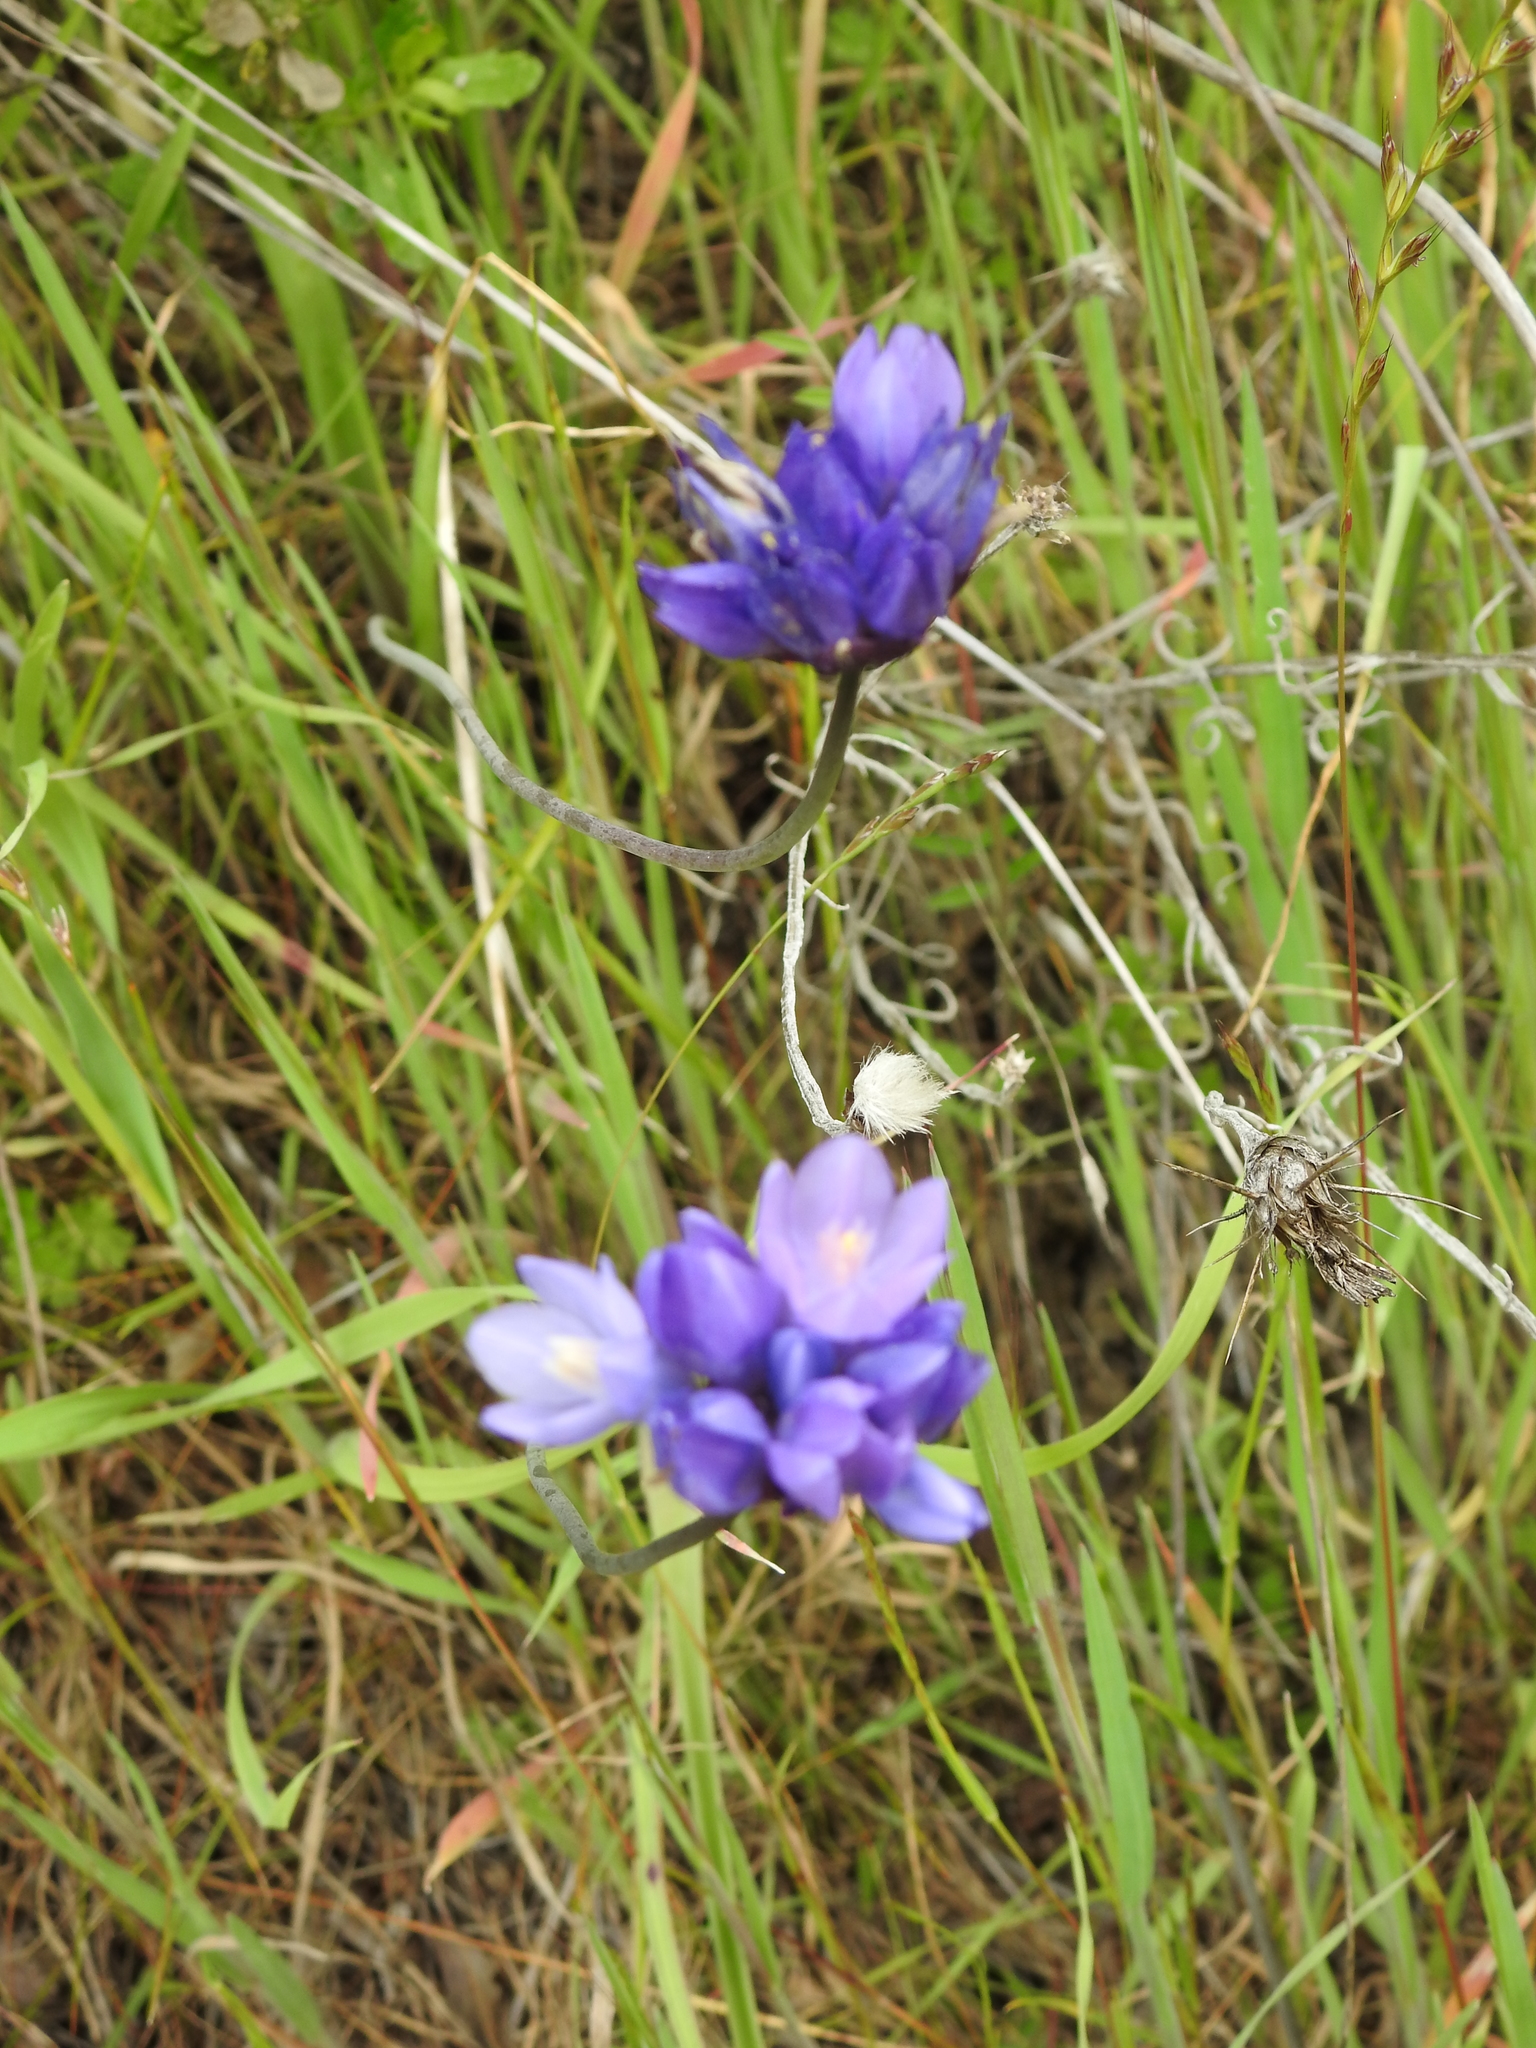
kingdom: Plantae
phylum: Tracheophyta
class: Liliopsida
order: Asparagales
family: Asparagaceae
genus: Dipterostemon
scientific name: Dipterostemon capitatus
